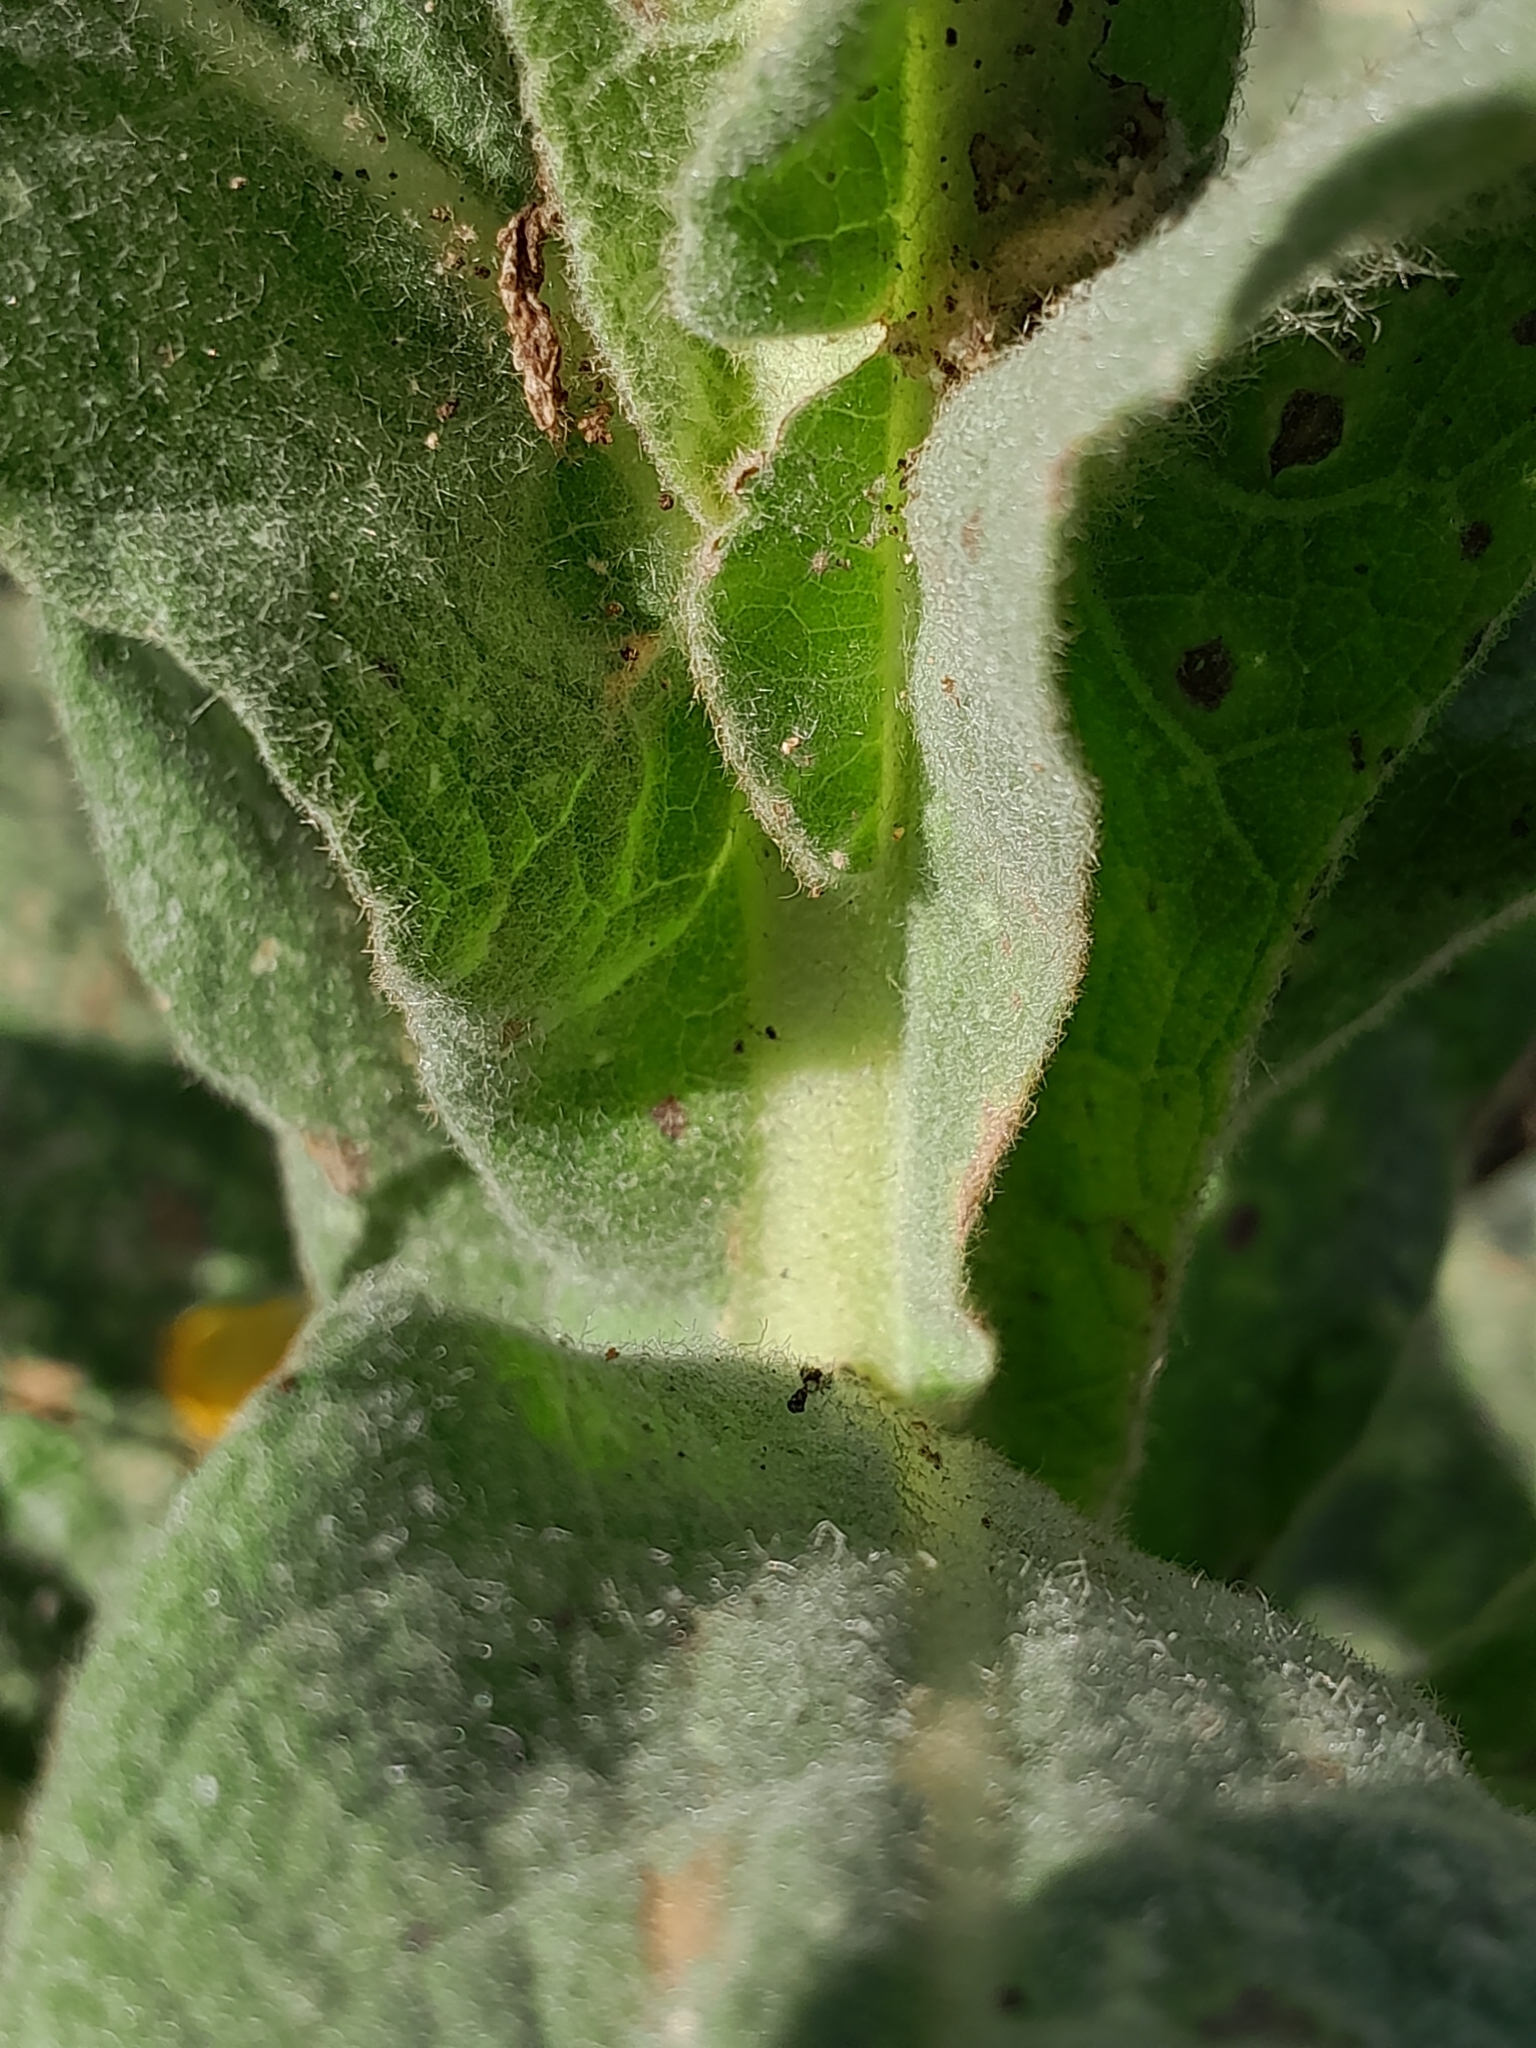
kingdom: Plantae
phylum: Tracheophyta
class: Magnoliopsida
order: Lamiales
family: Scrophulariaceae
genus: Verbascum
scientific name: Verbascum phlomoides
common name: Orange mullein
